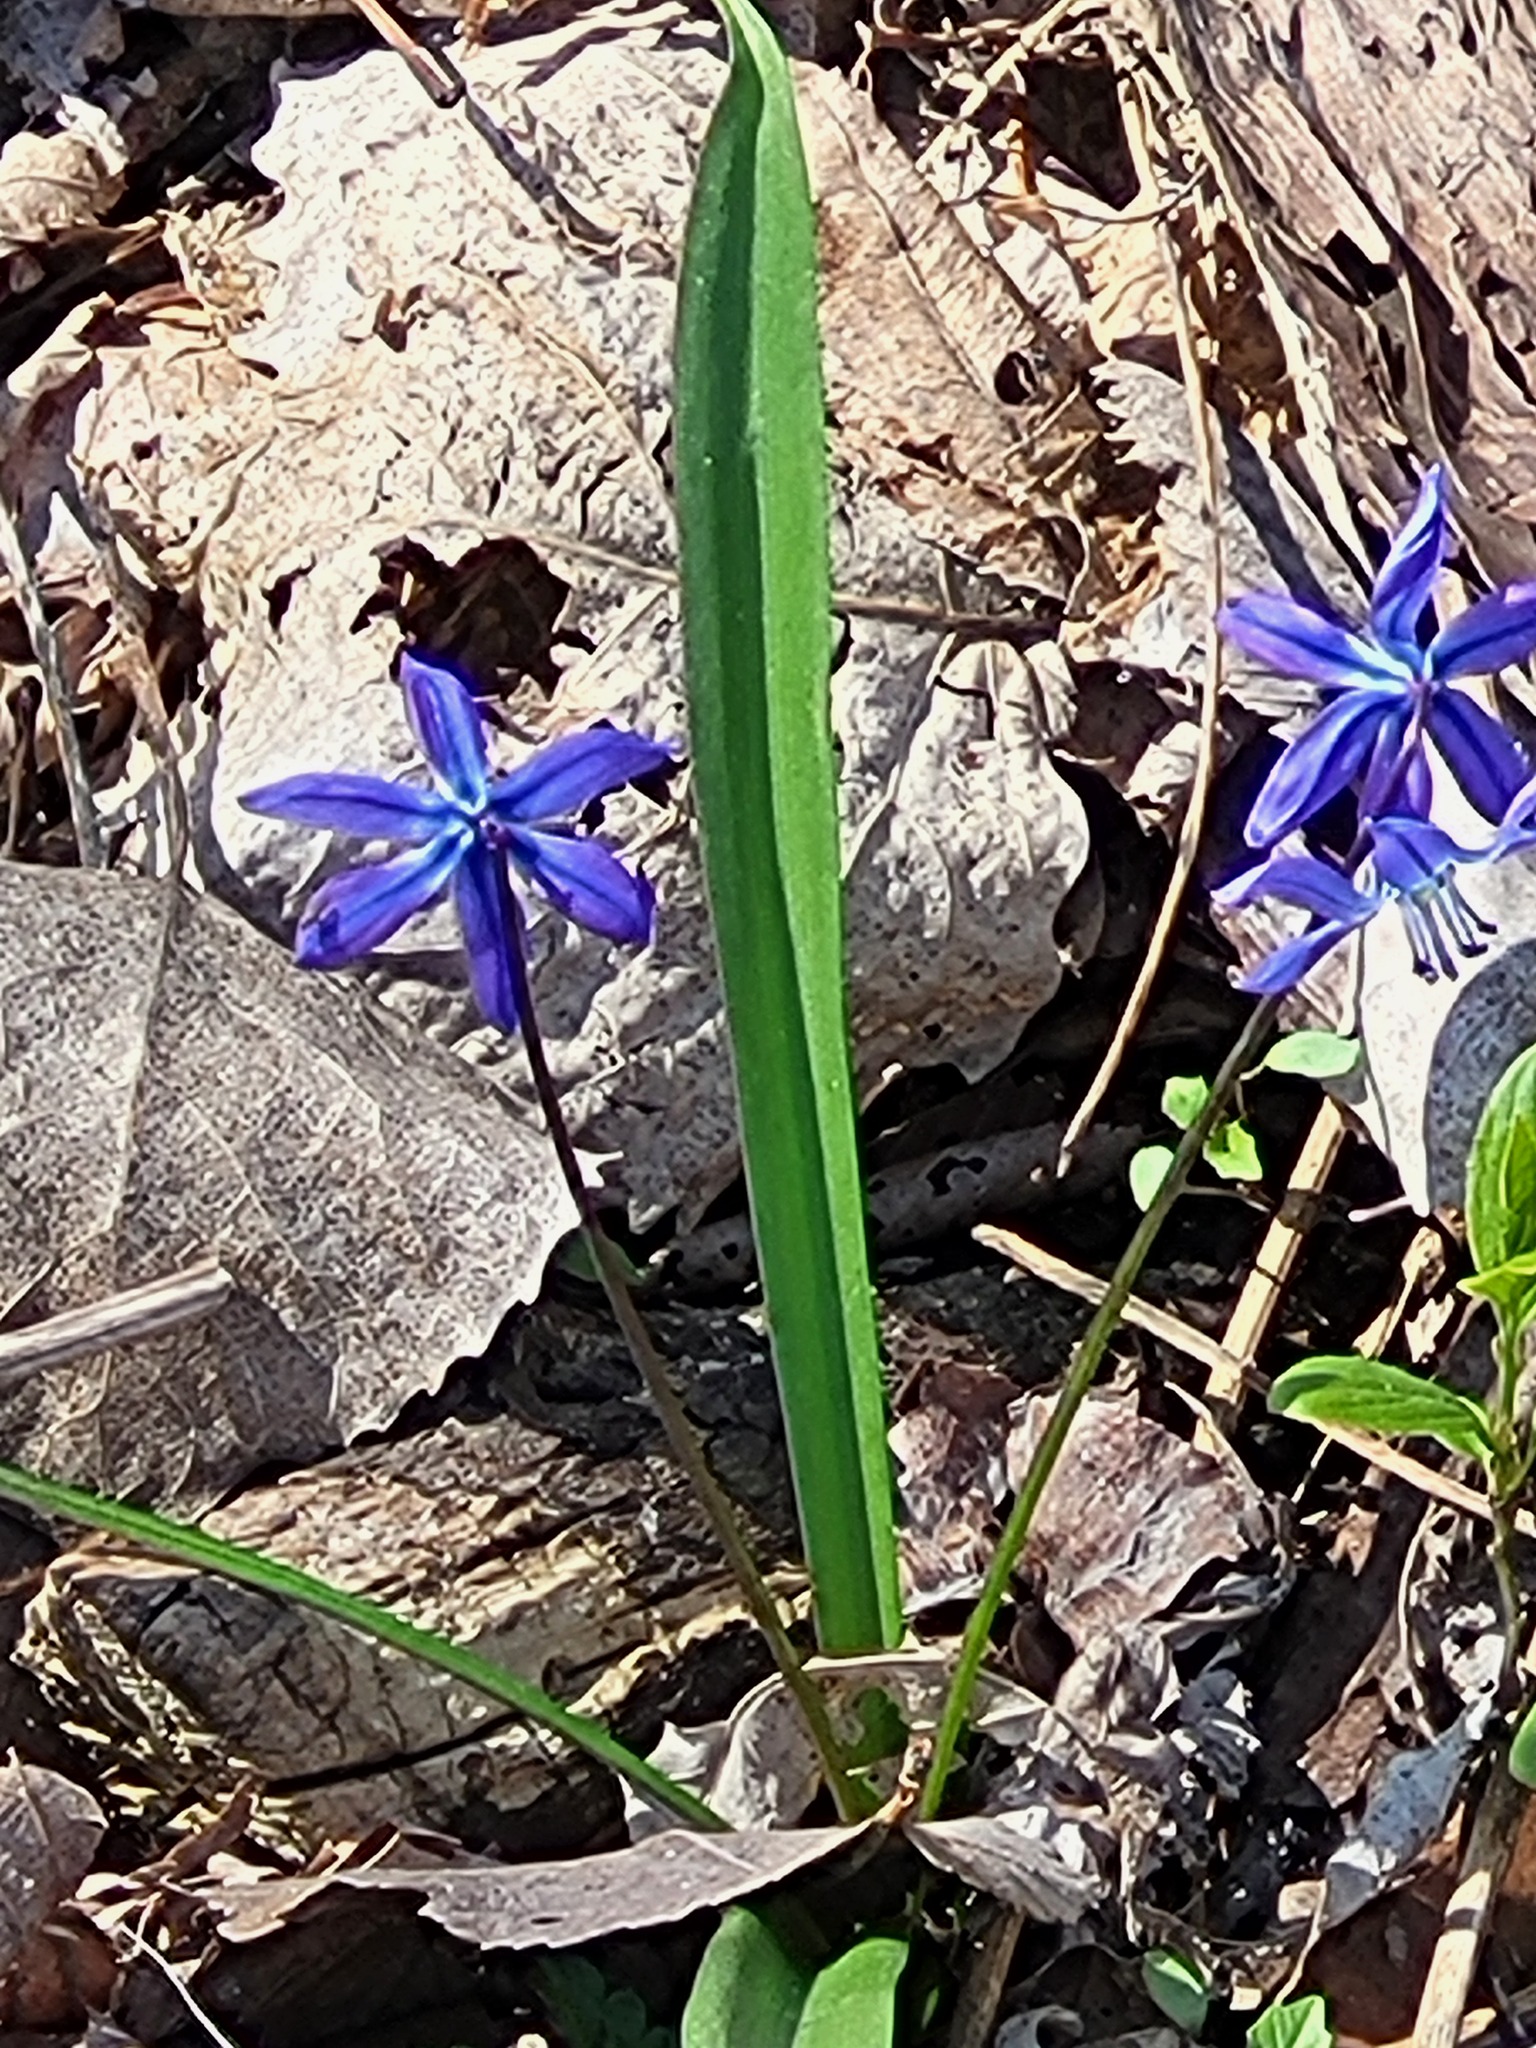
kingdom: Plantae
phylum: Tracheophyta
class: Liliopsida
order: Asparagales
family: Asparagaceae
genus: Scilla
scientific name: Scilla siberica
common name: Siberian squill
